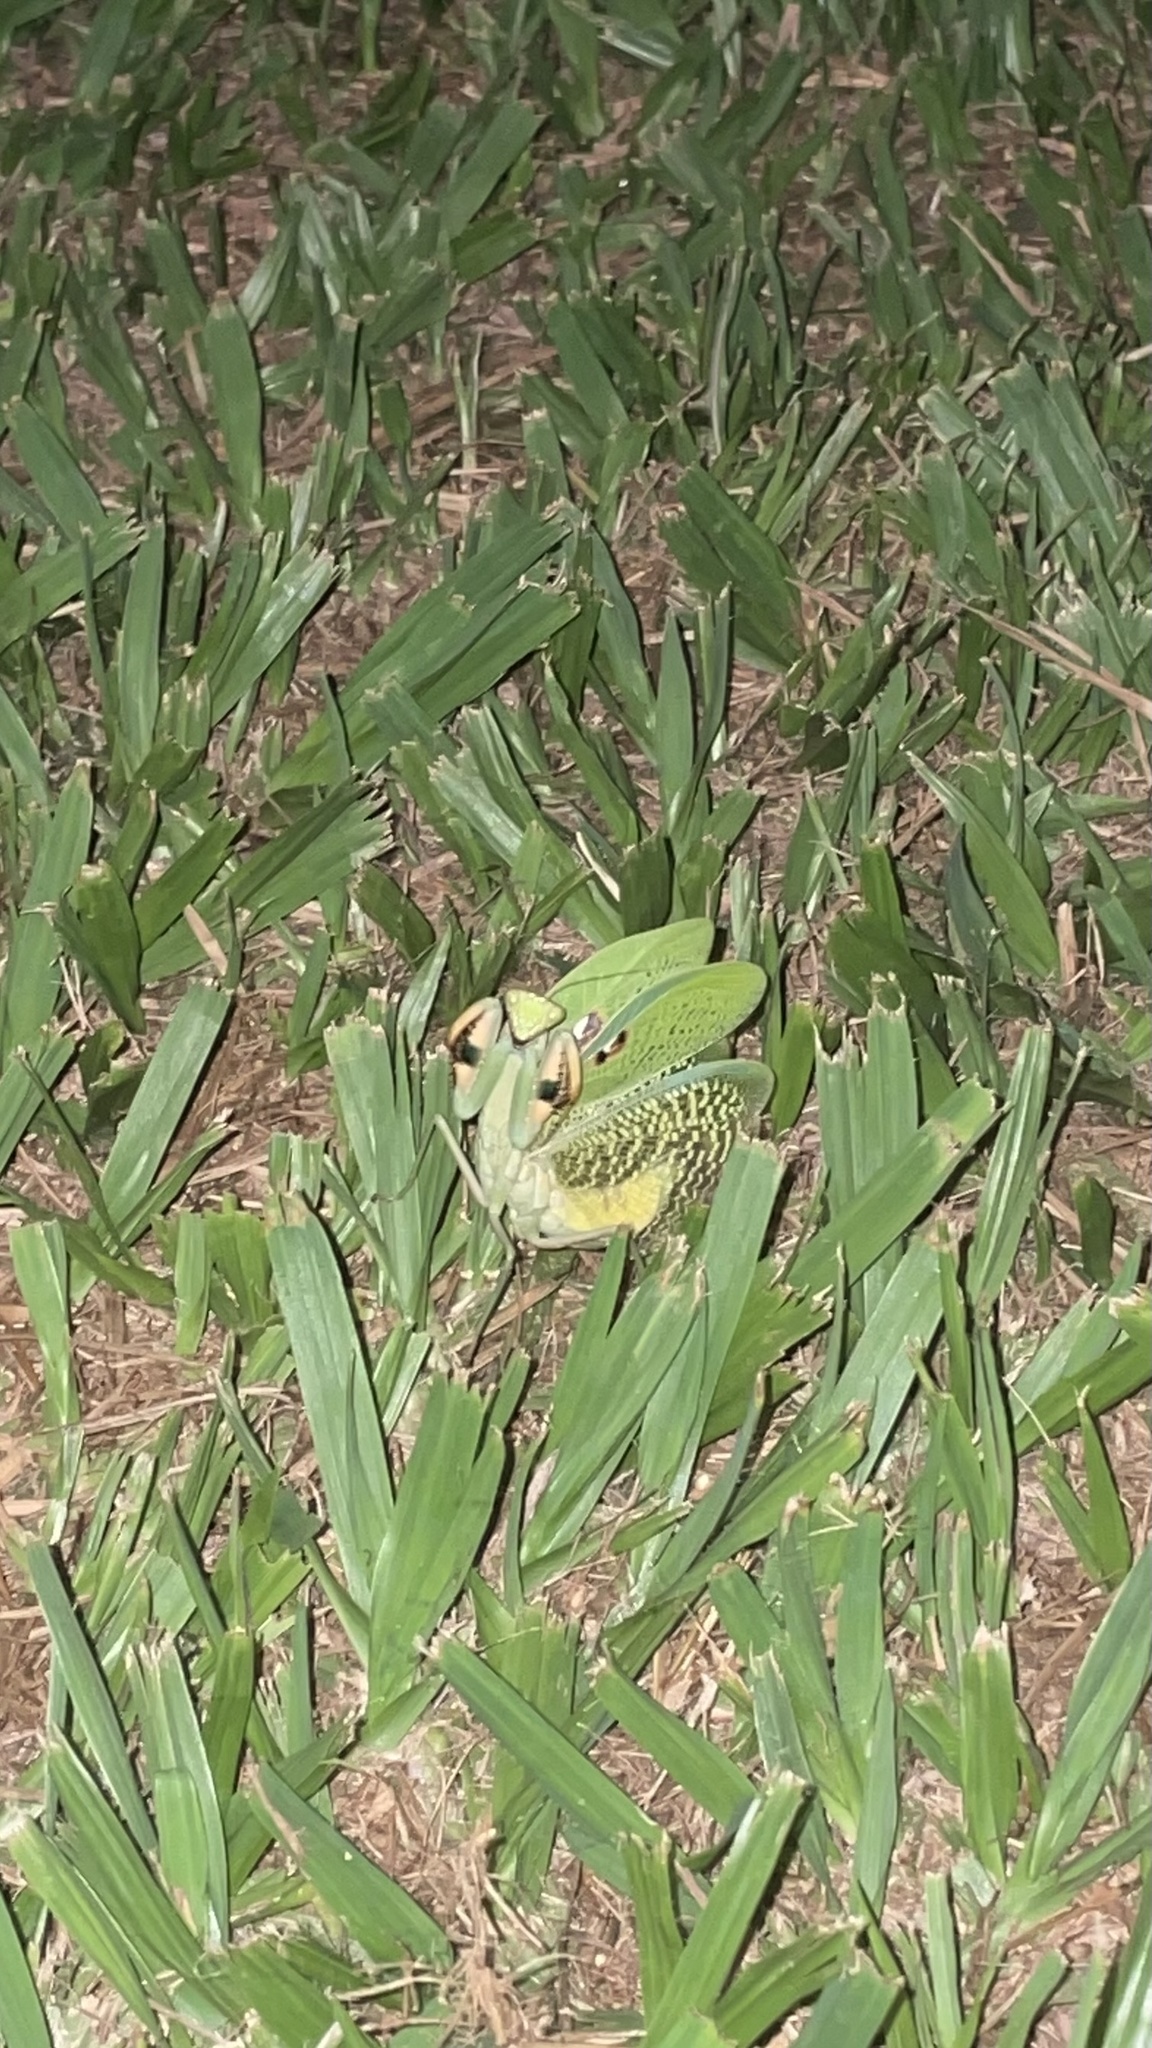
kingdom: Animalia
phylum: Arthropoda
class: Insecta
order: Mantodea
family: Mantidae
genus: Stagmatoptera
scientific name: Stagmatoptera reimoseri
